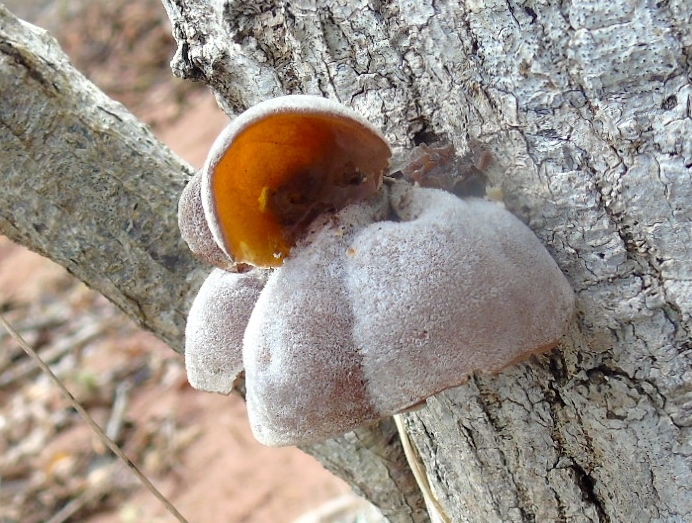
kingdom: Fungi
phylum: Basidiomycota
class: Agaricomycetes
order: Auriculariales
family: Auriculariaceae
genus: Auricularia
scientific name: Auricularia
